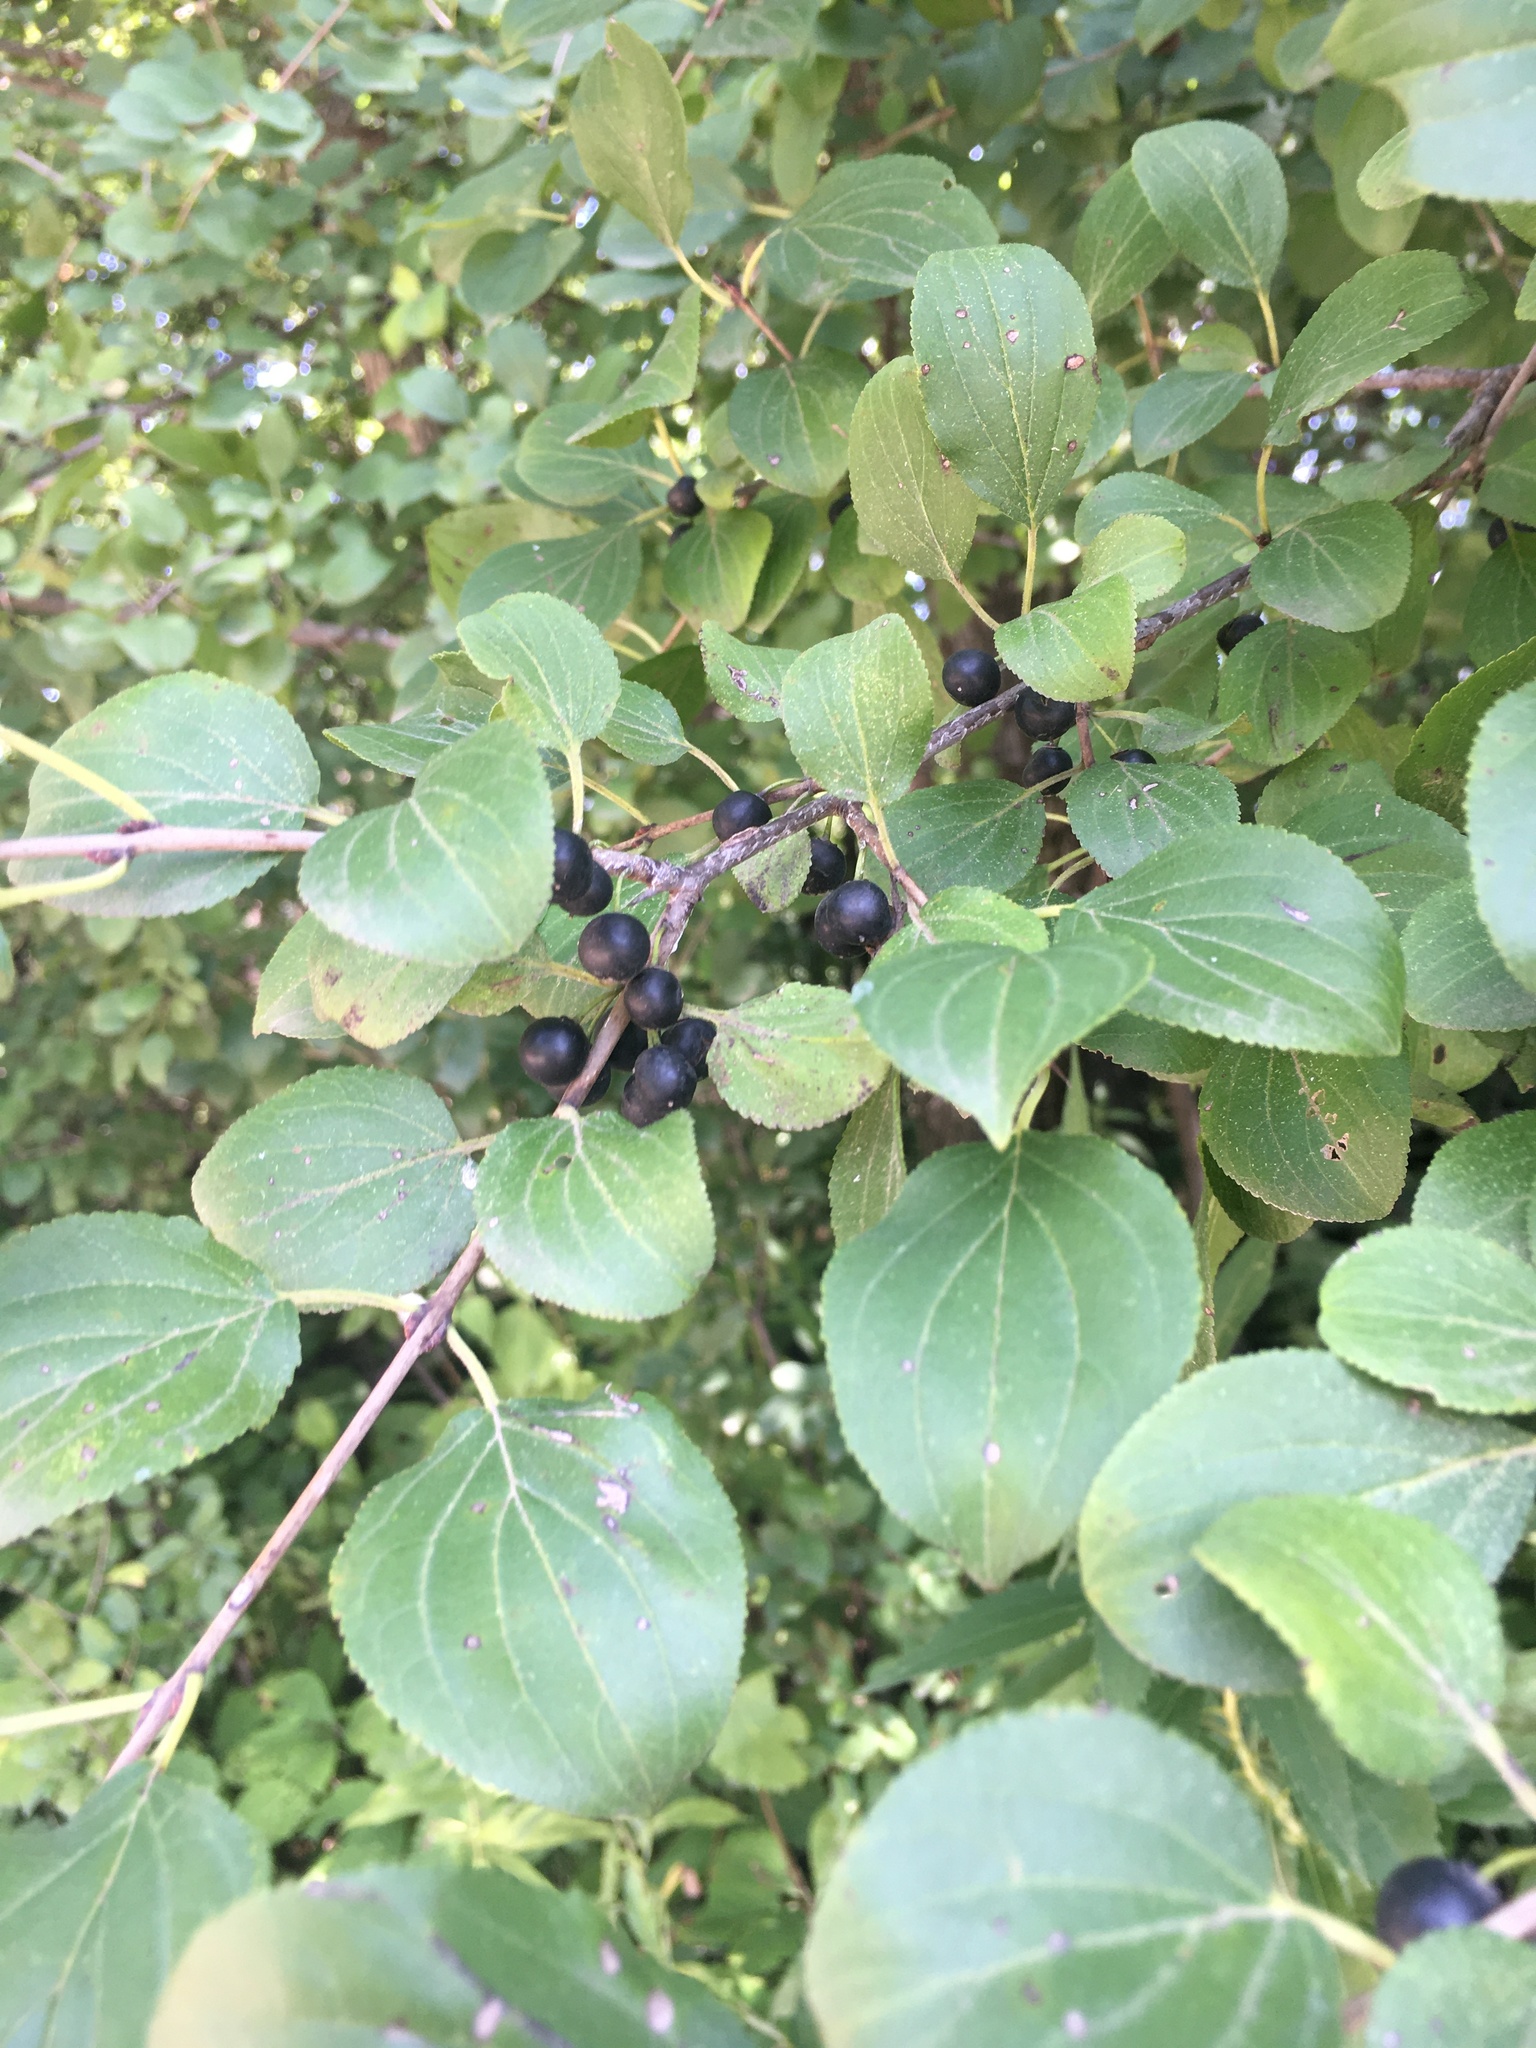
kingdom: Plantae
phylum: Tracheophyta
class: Magnoliopsida
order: Rosales
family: Rhamnaceae
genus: Rhamnus
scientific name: Rhamnus cathartica
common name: Common buckthorn
